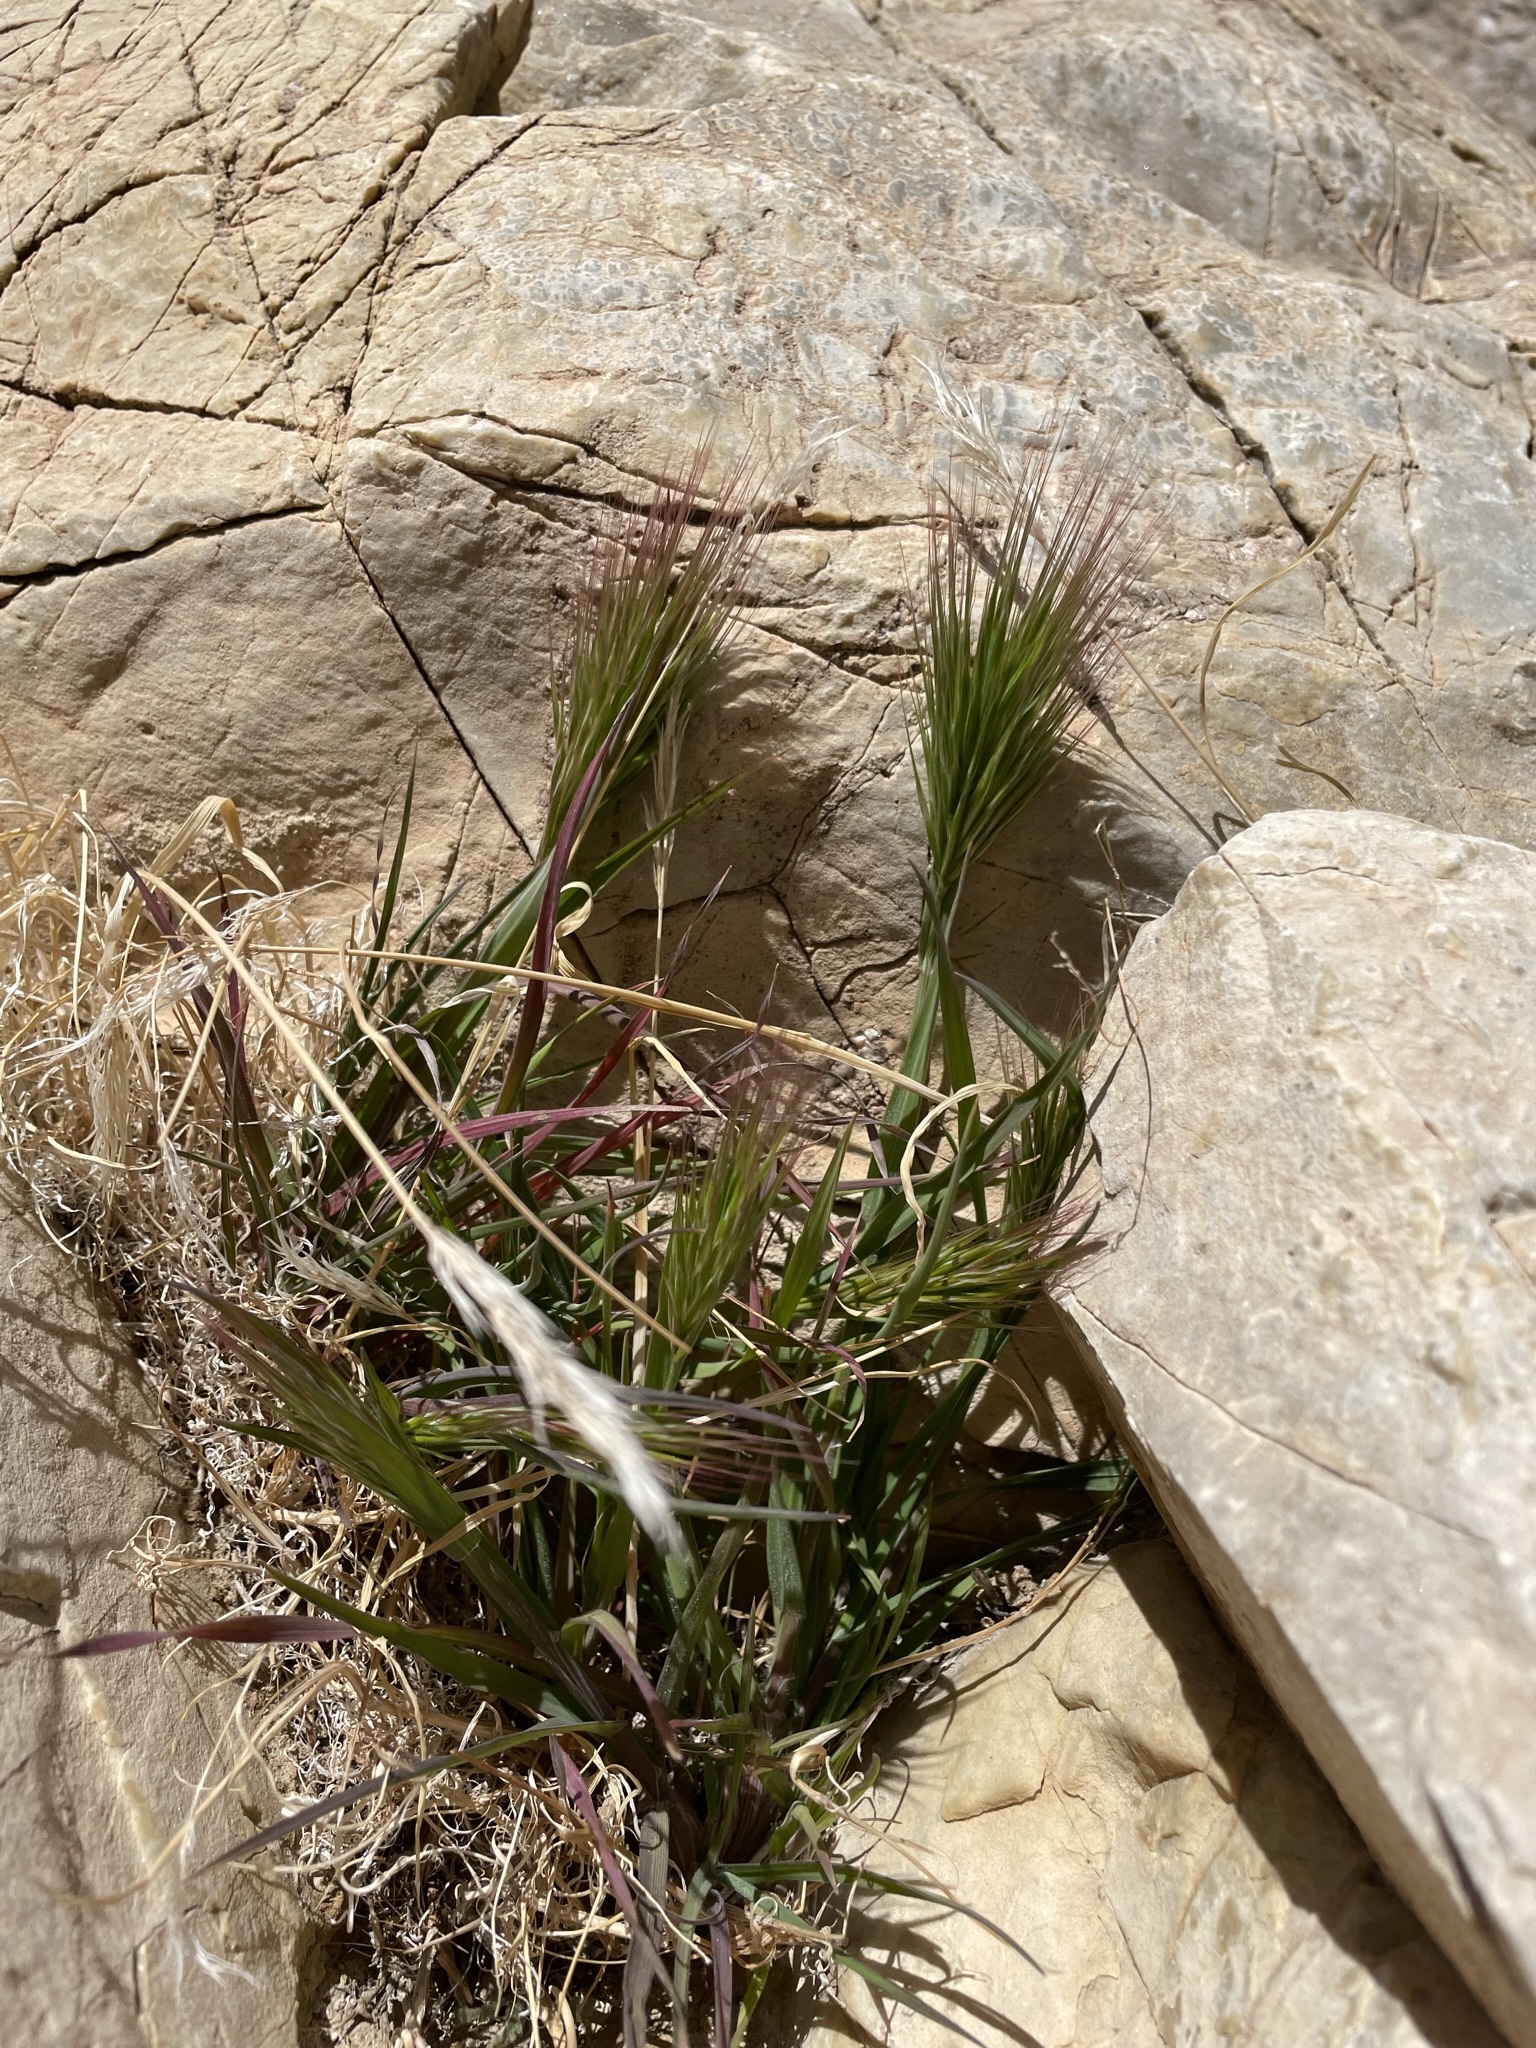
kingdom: Plantae
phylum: Tracheophyta
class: Liliopsida
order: Poales
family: Poaceae
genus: Bromus
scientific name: Bromus rubens
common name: Red brome
